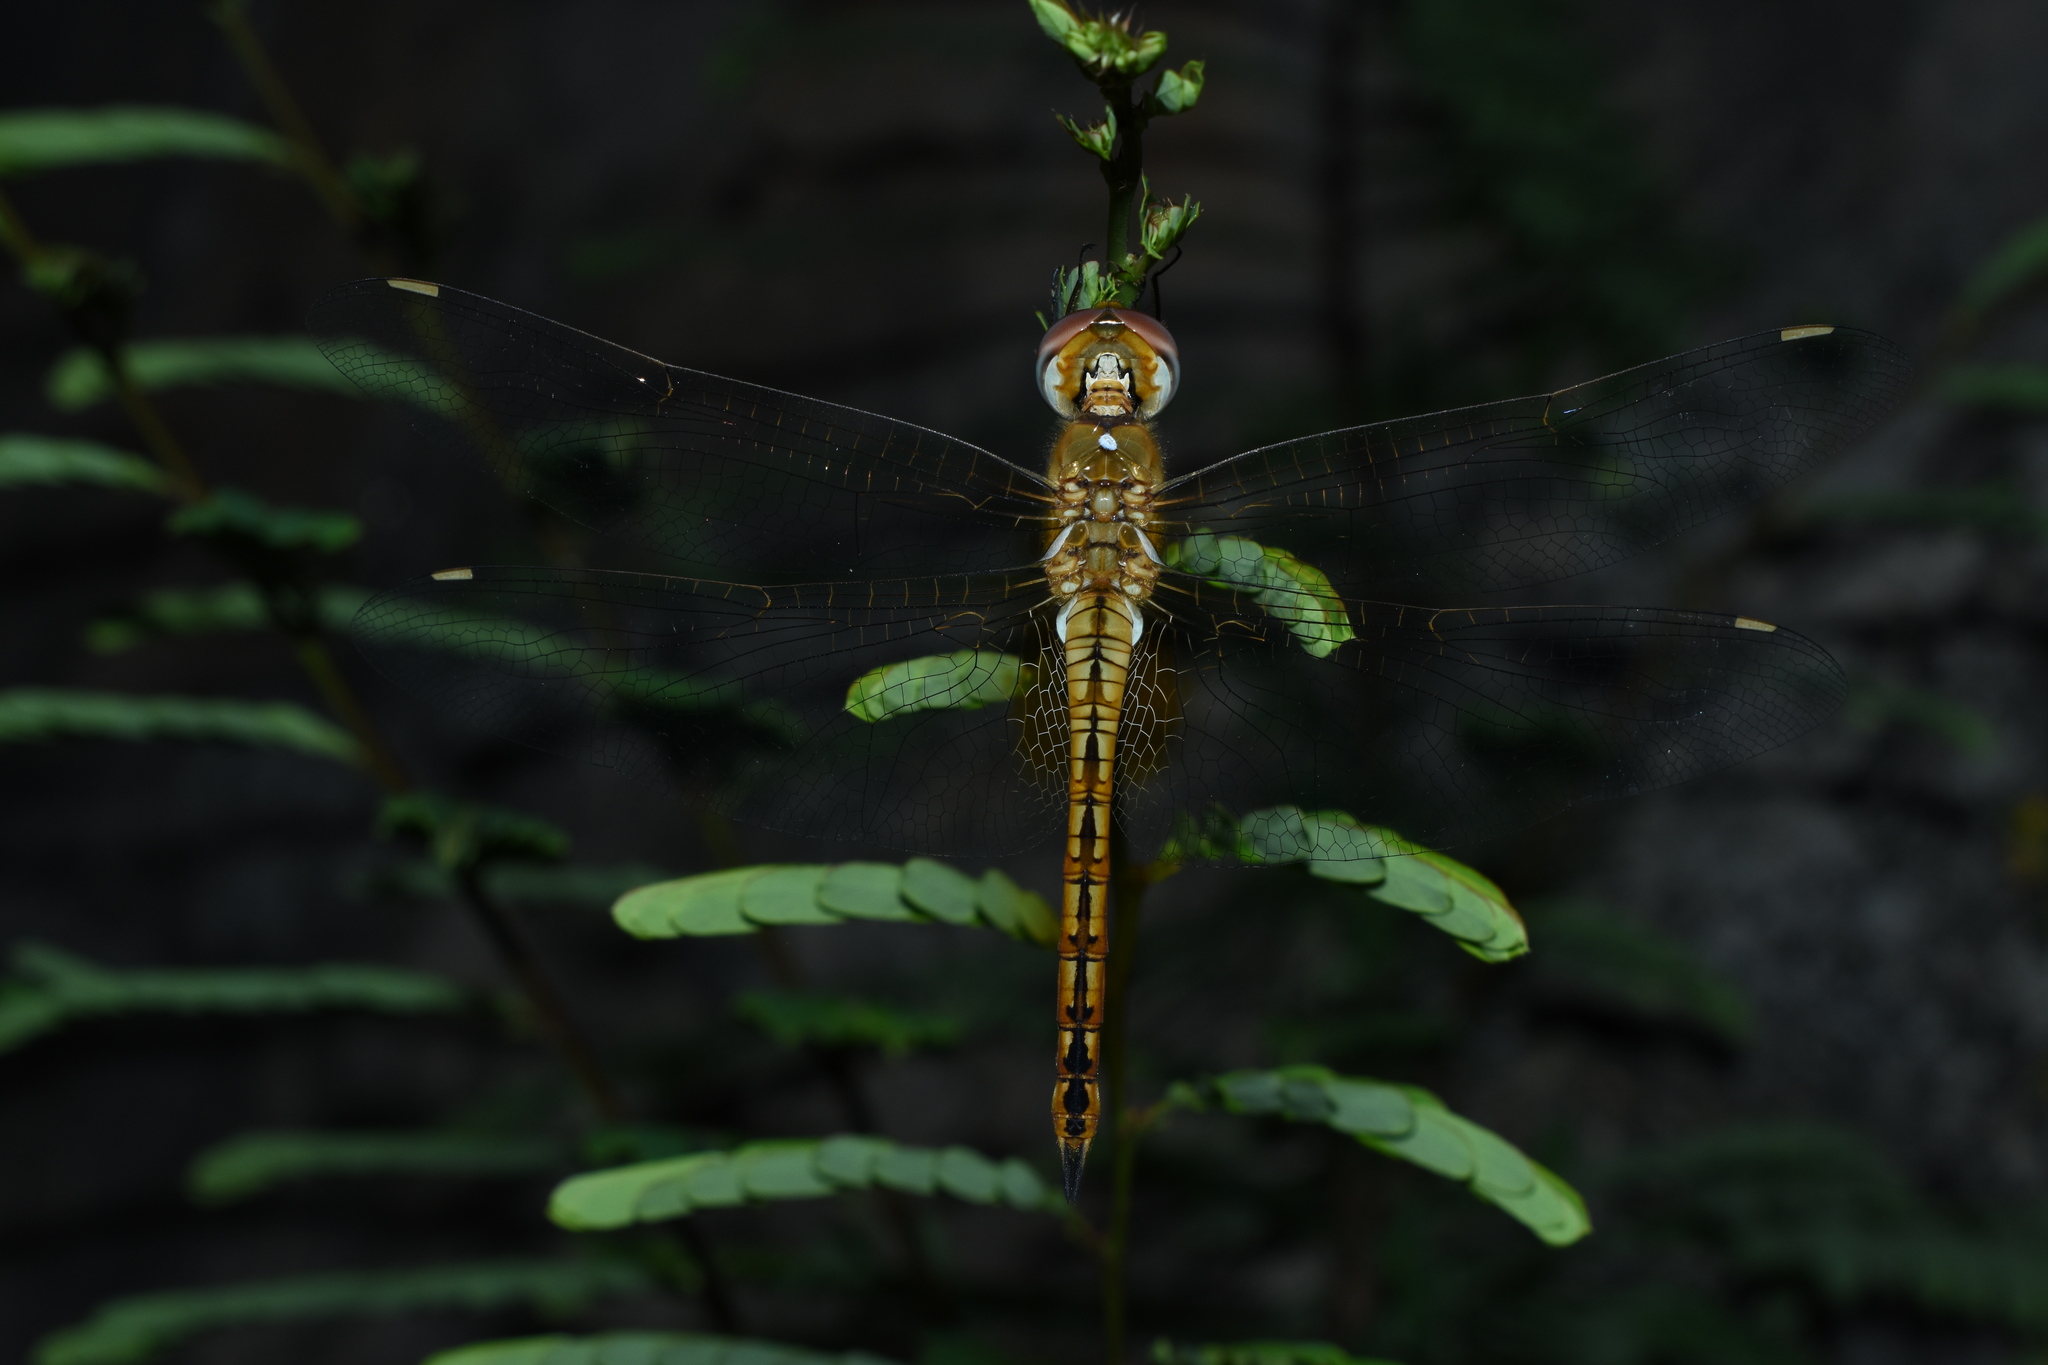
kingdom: Animalia
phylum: Arthropoda
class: Insecta
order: Odonata
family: Libellulidae
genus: Pantala
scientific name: Pantala flavescens
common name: Wandering glider
